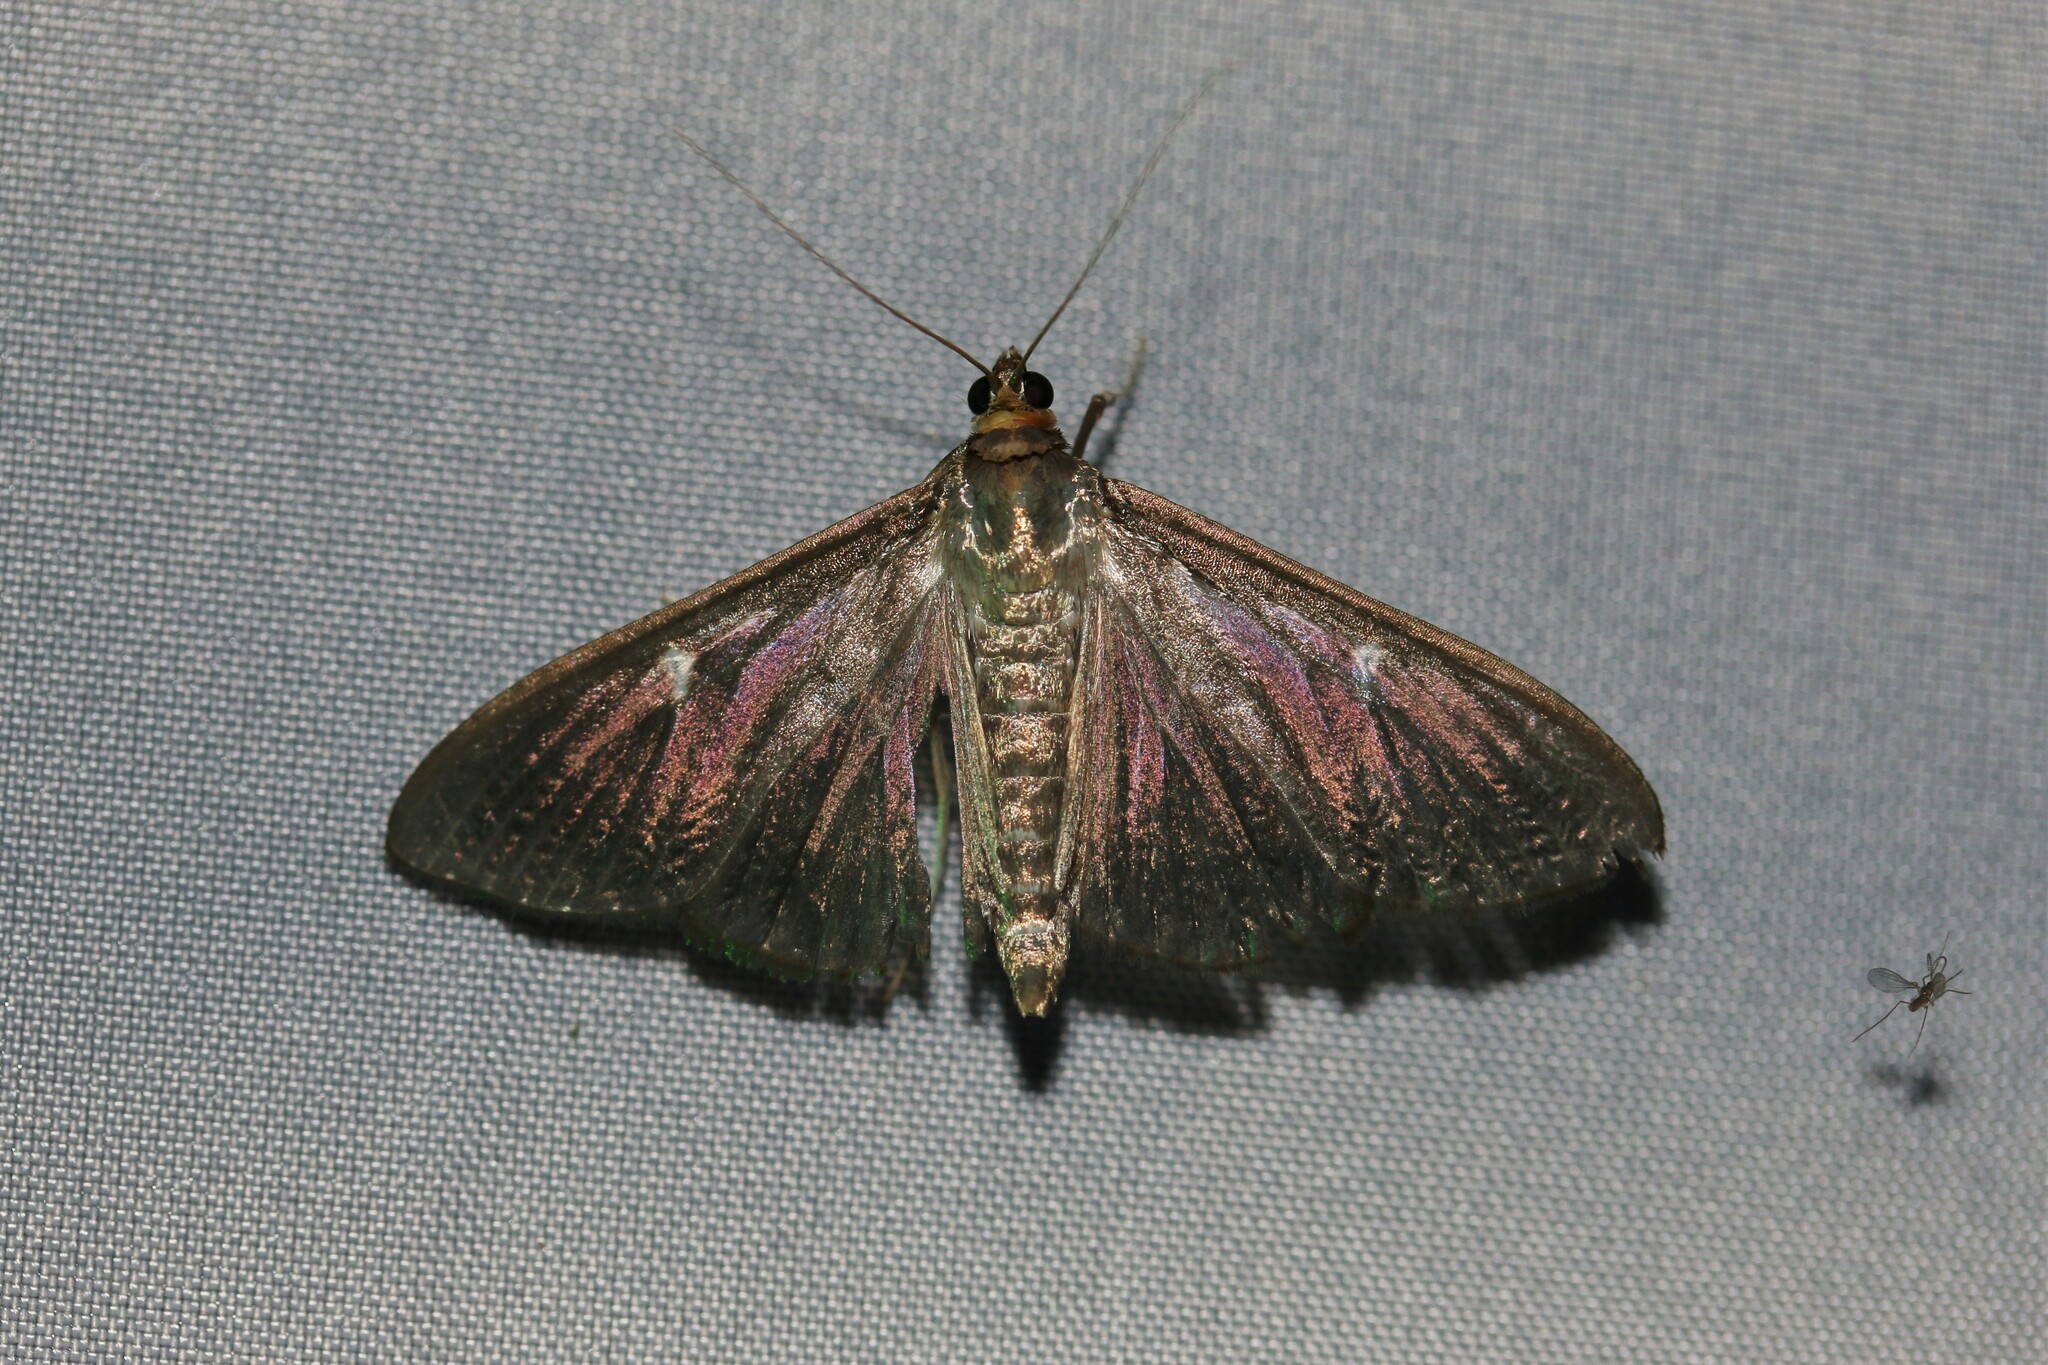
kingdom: Animalia
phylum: Arthropoda
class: Insecta
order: Lepidoptera
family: Crambidae
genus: Cydalima
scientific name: Cydalima perspectalis
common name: Box tree moth
